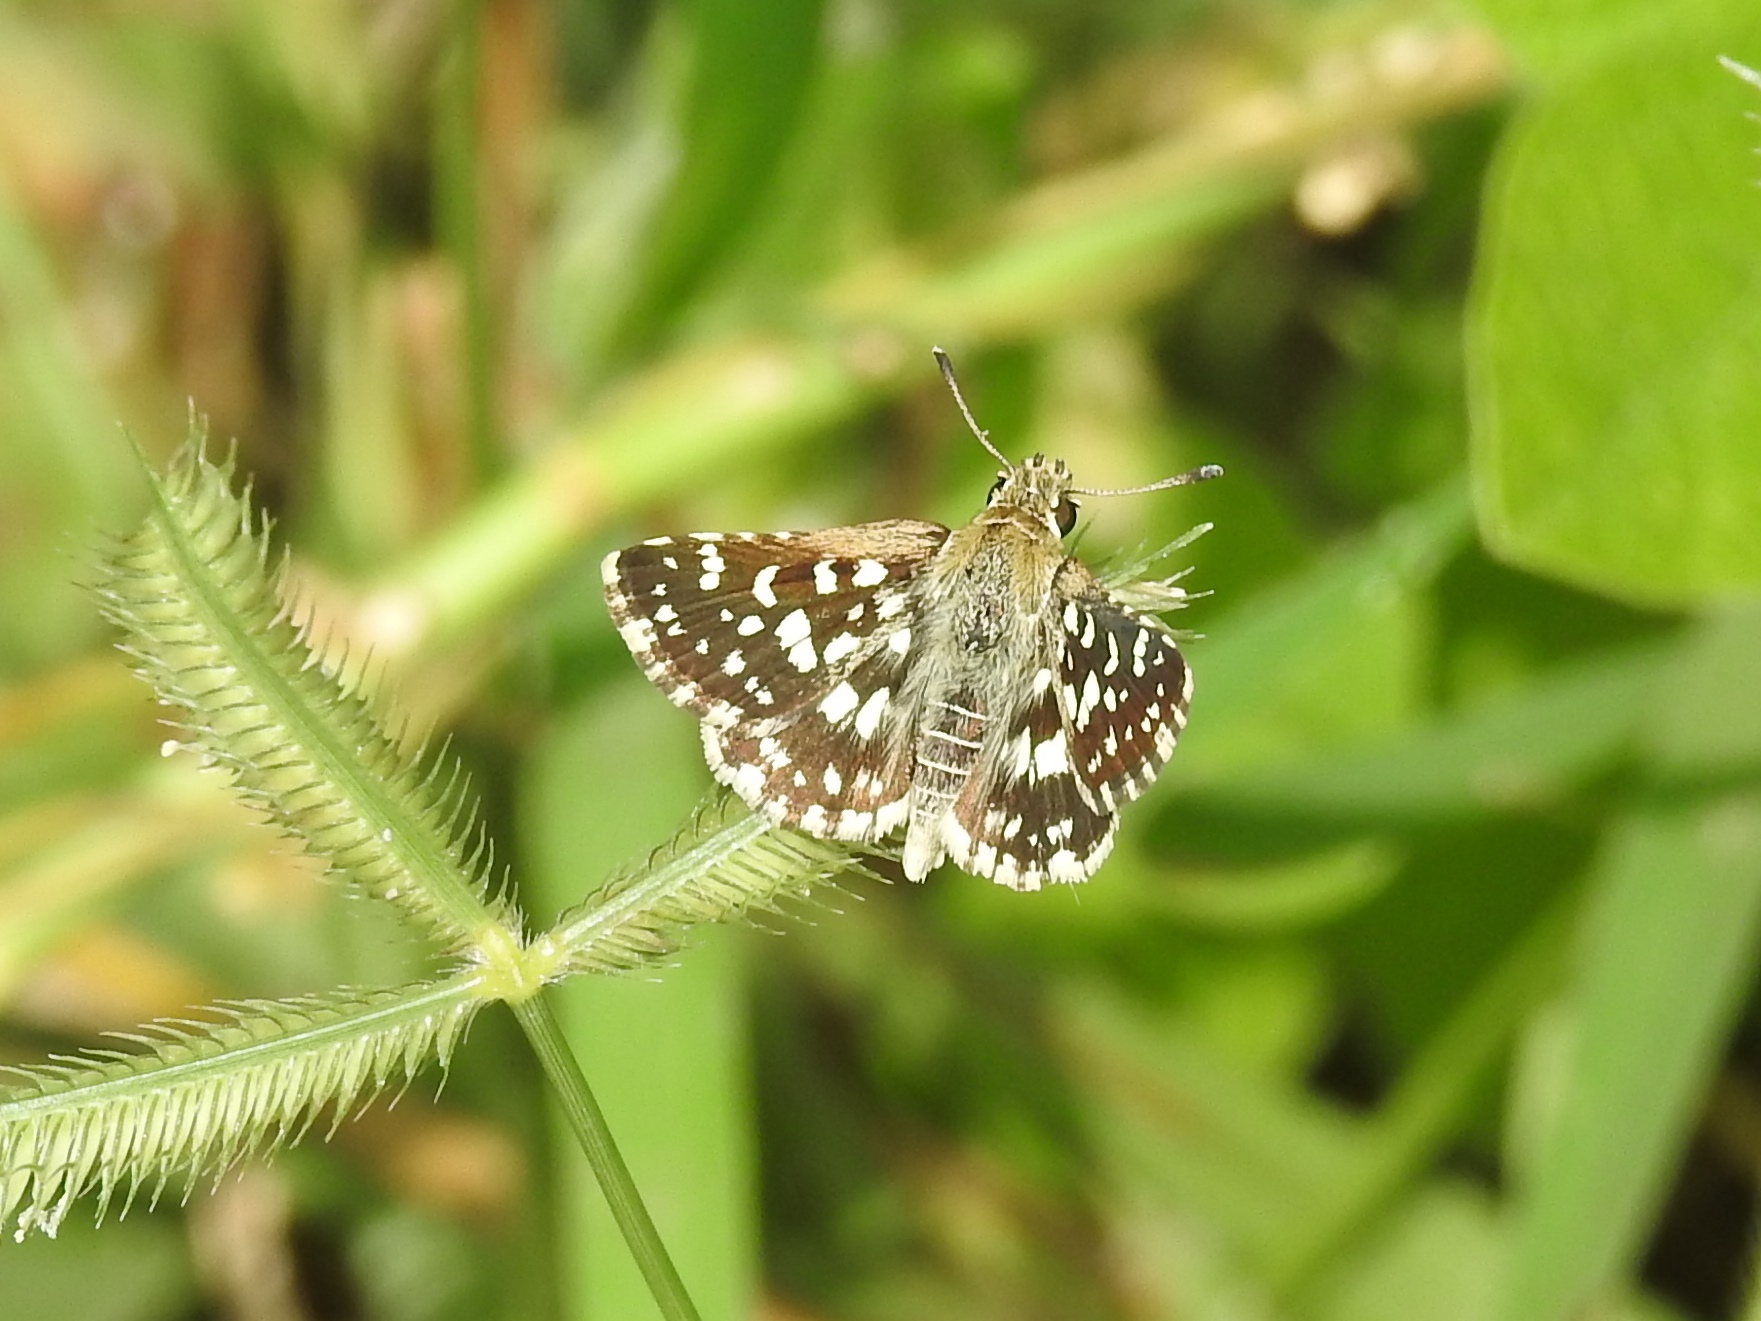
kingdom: Animalia
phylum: Arthropoda
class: Insecta
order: Lepidoptera
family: Hesperiidae
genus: Spialia
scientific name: Spialia galba
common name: Indian skipper
